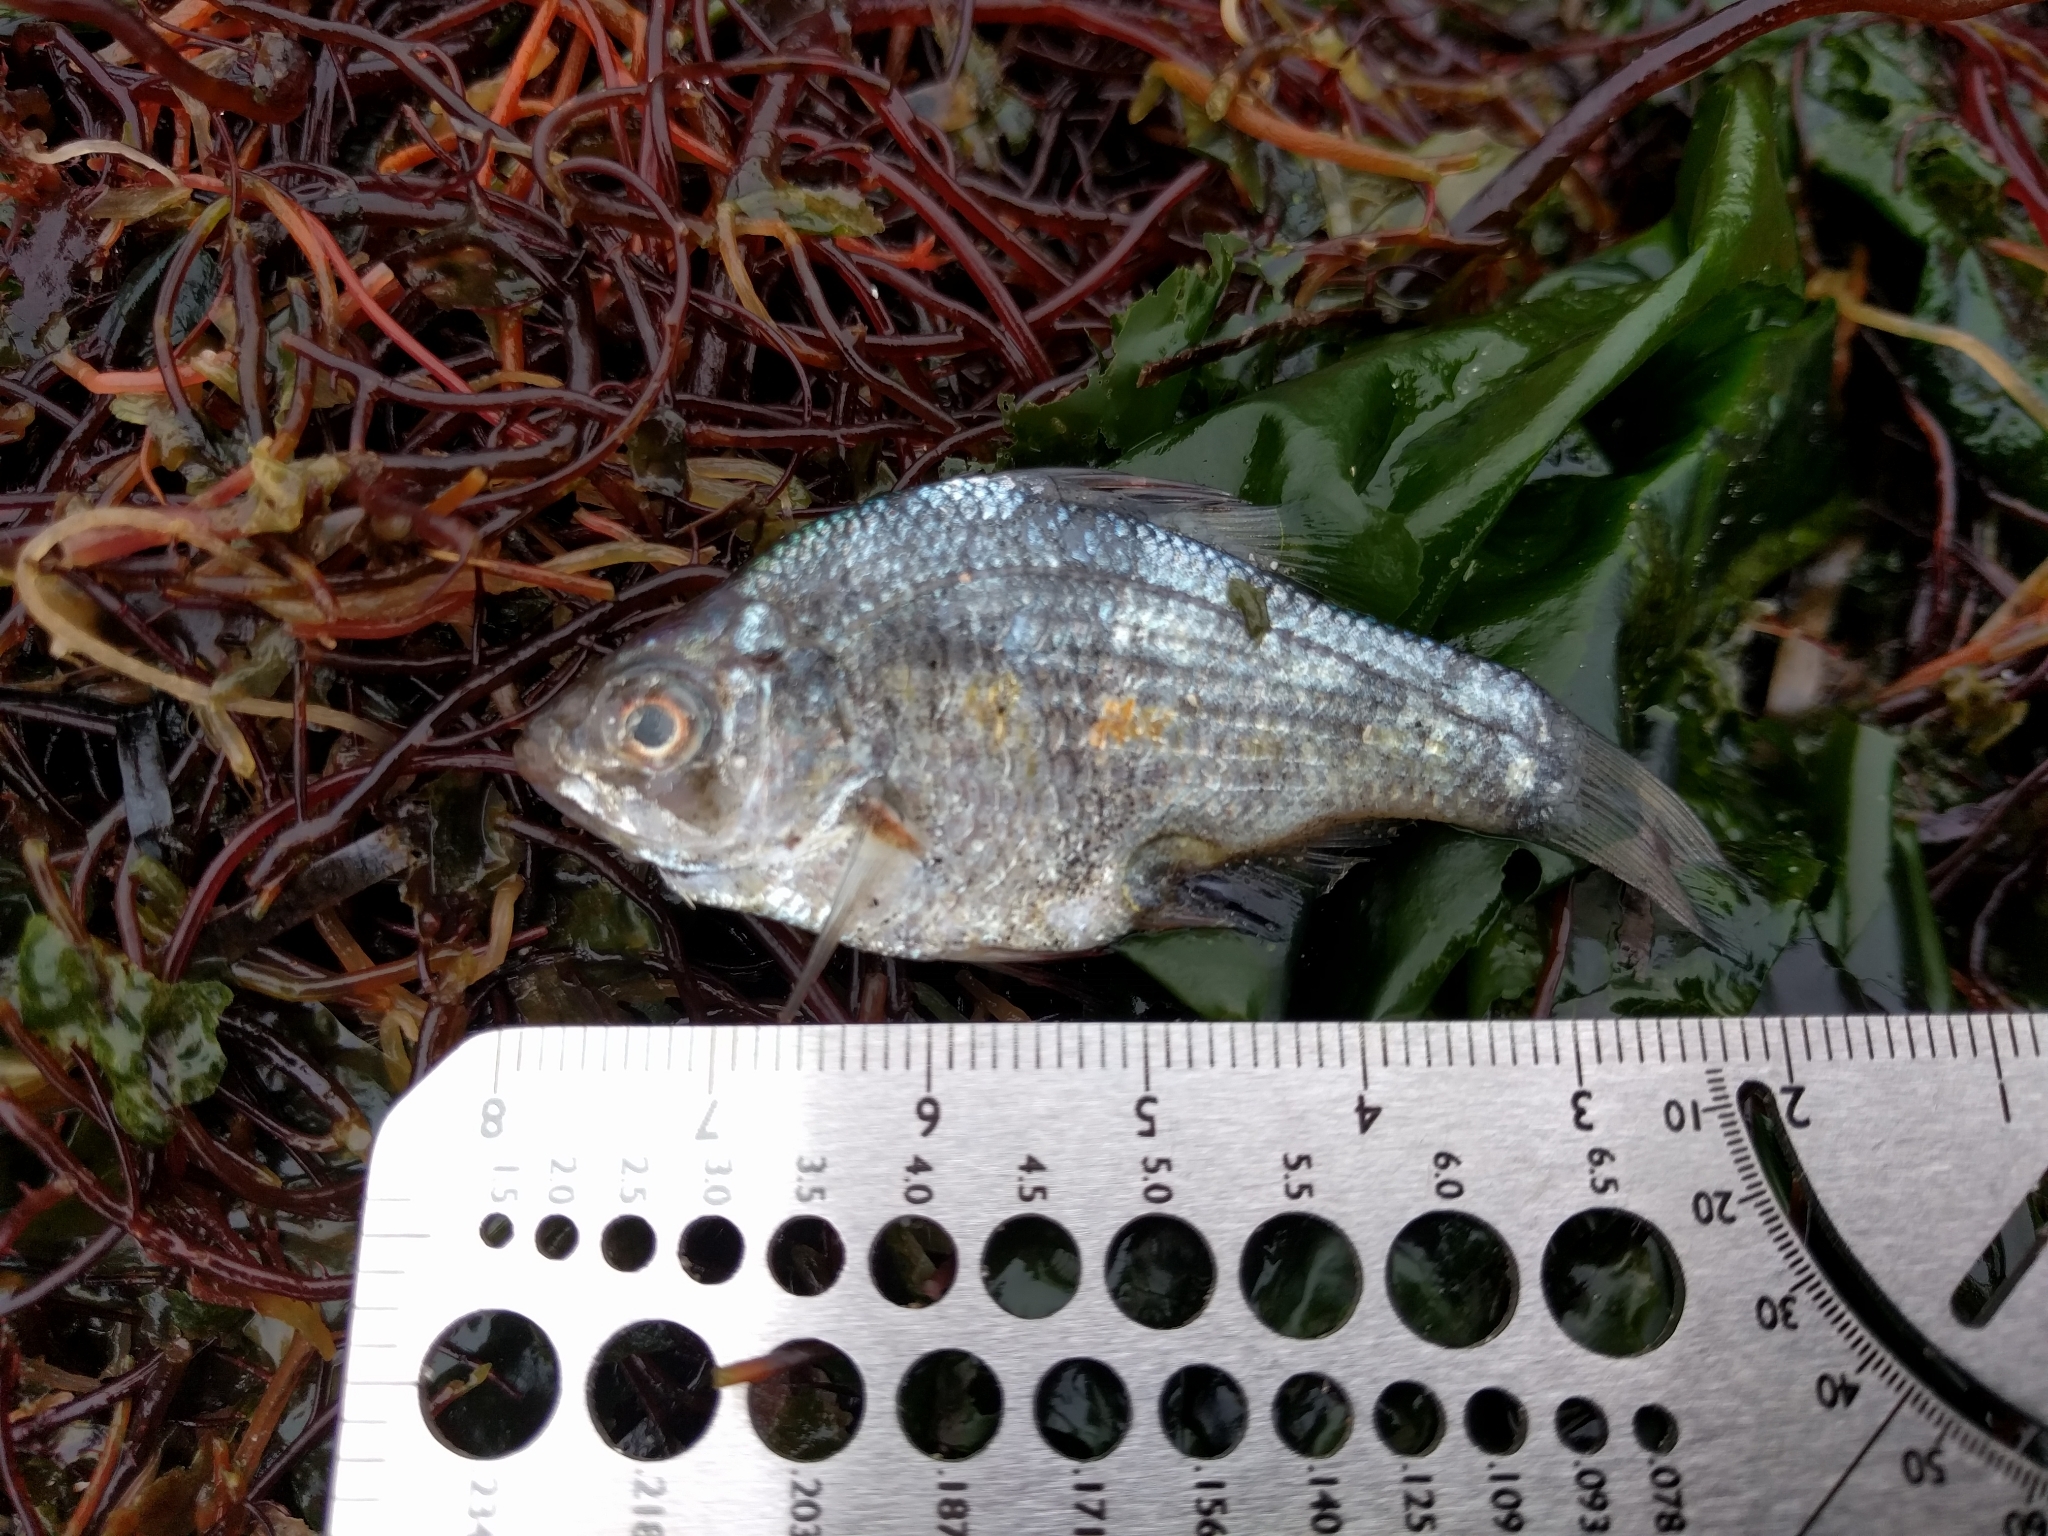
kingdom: Animalia
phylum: Chordata
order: Perciformes
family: Embiotocidae
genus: Micrometrus
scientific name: Micrometrus minimus
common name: Dwarf perch
